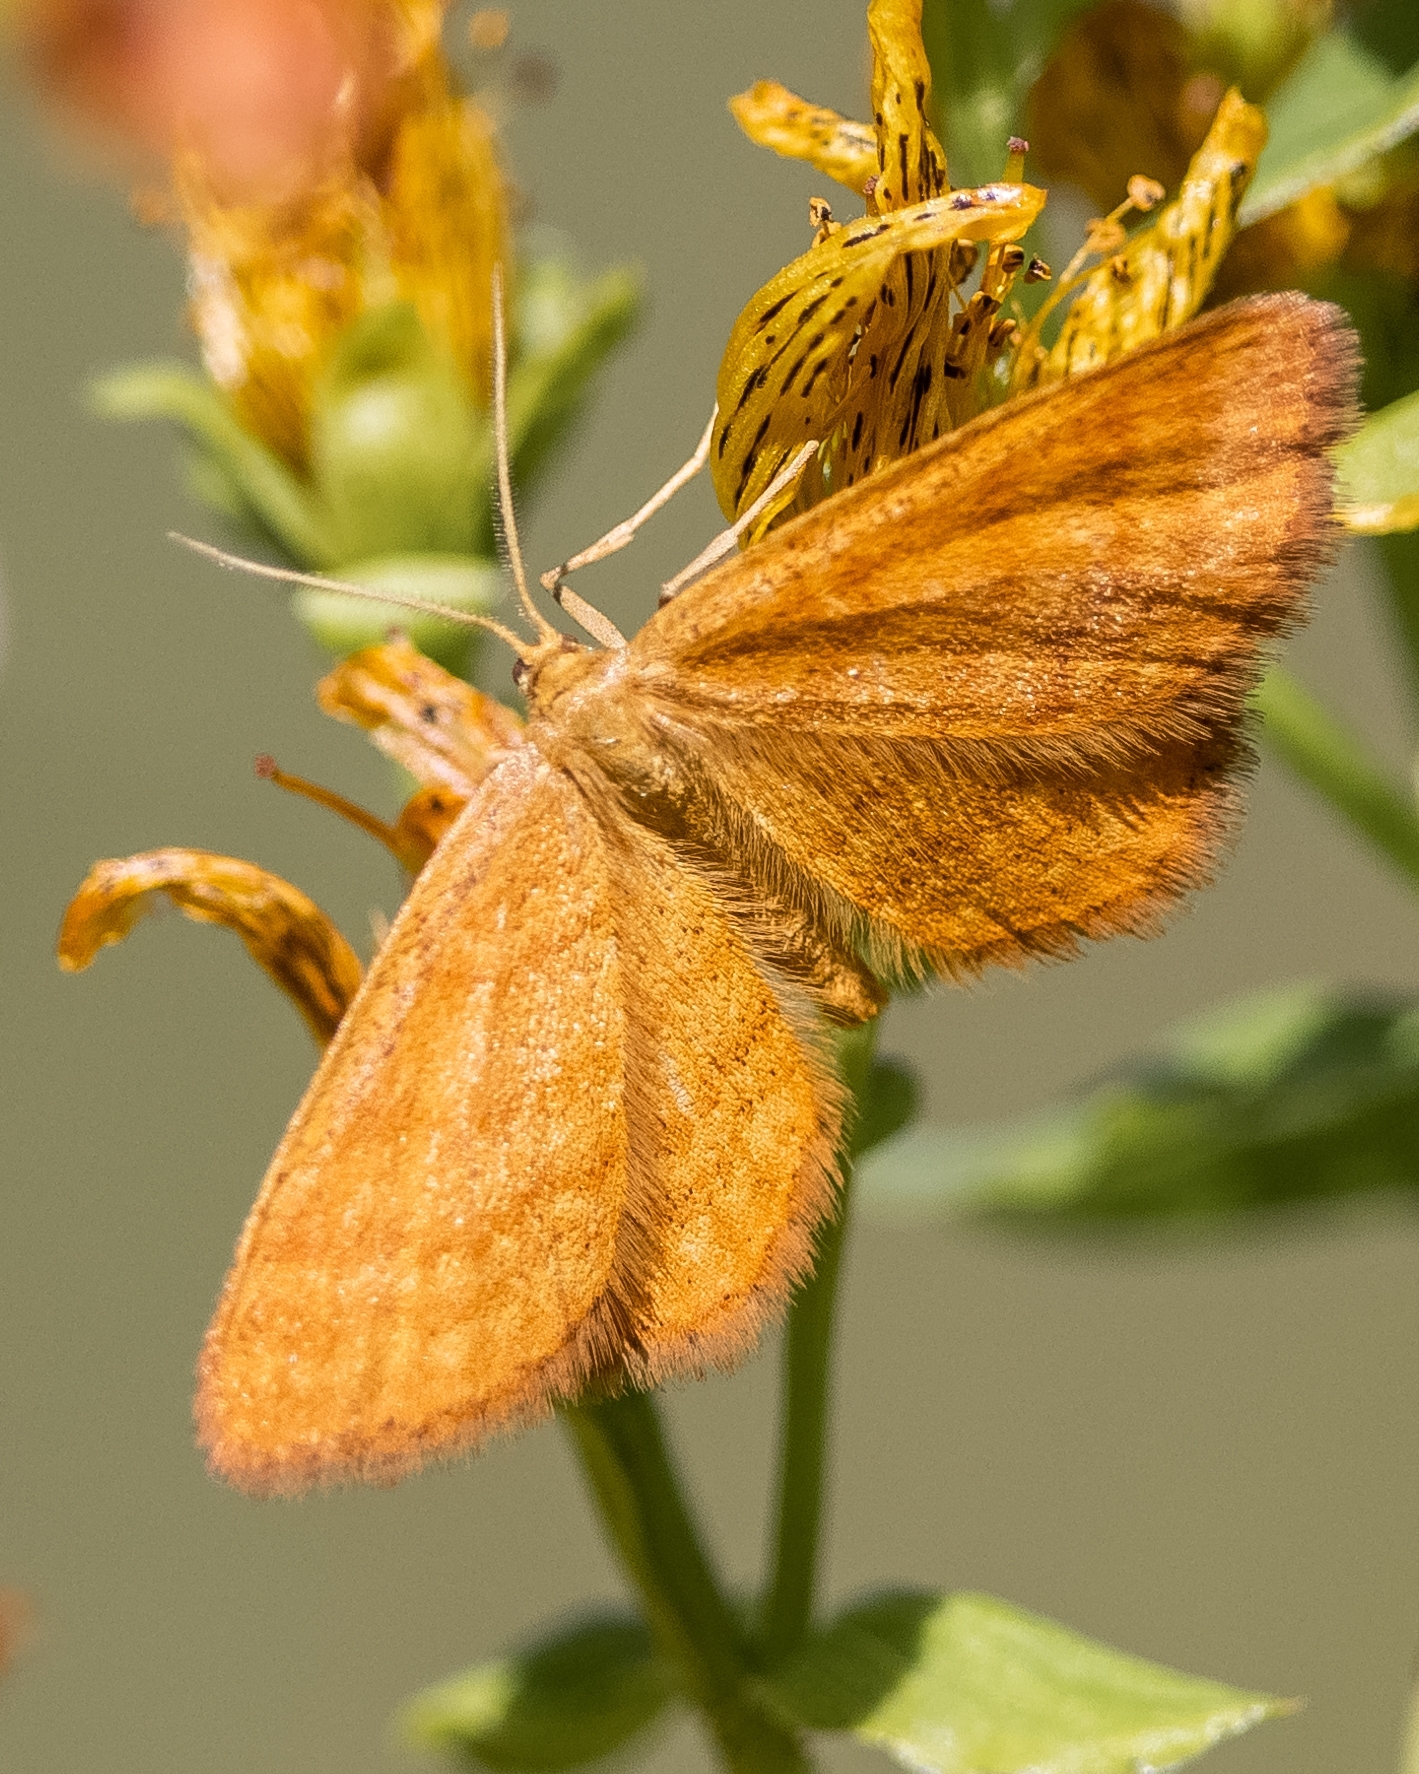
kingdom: Animalia
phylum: Arthropoda
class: Insecta
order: Lepidoptera
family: Geometridae
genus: Idaea
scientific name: Idaea serpentata
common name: Ochraceous wave
